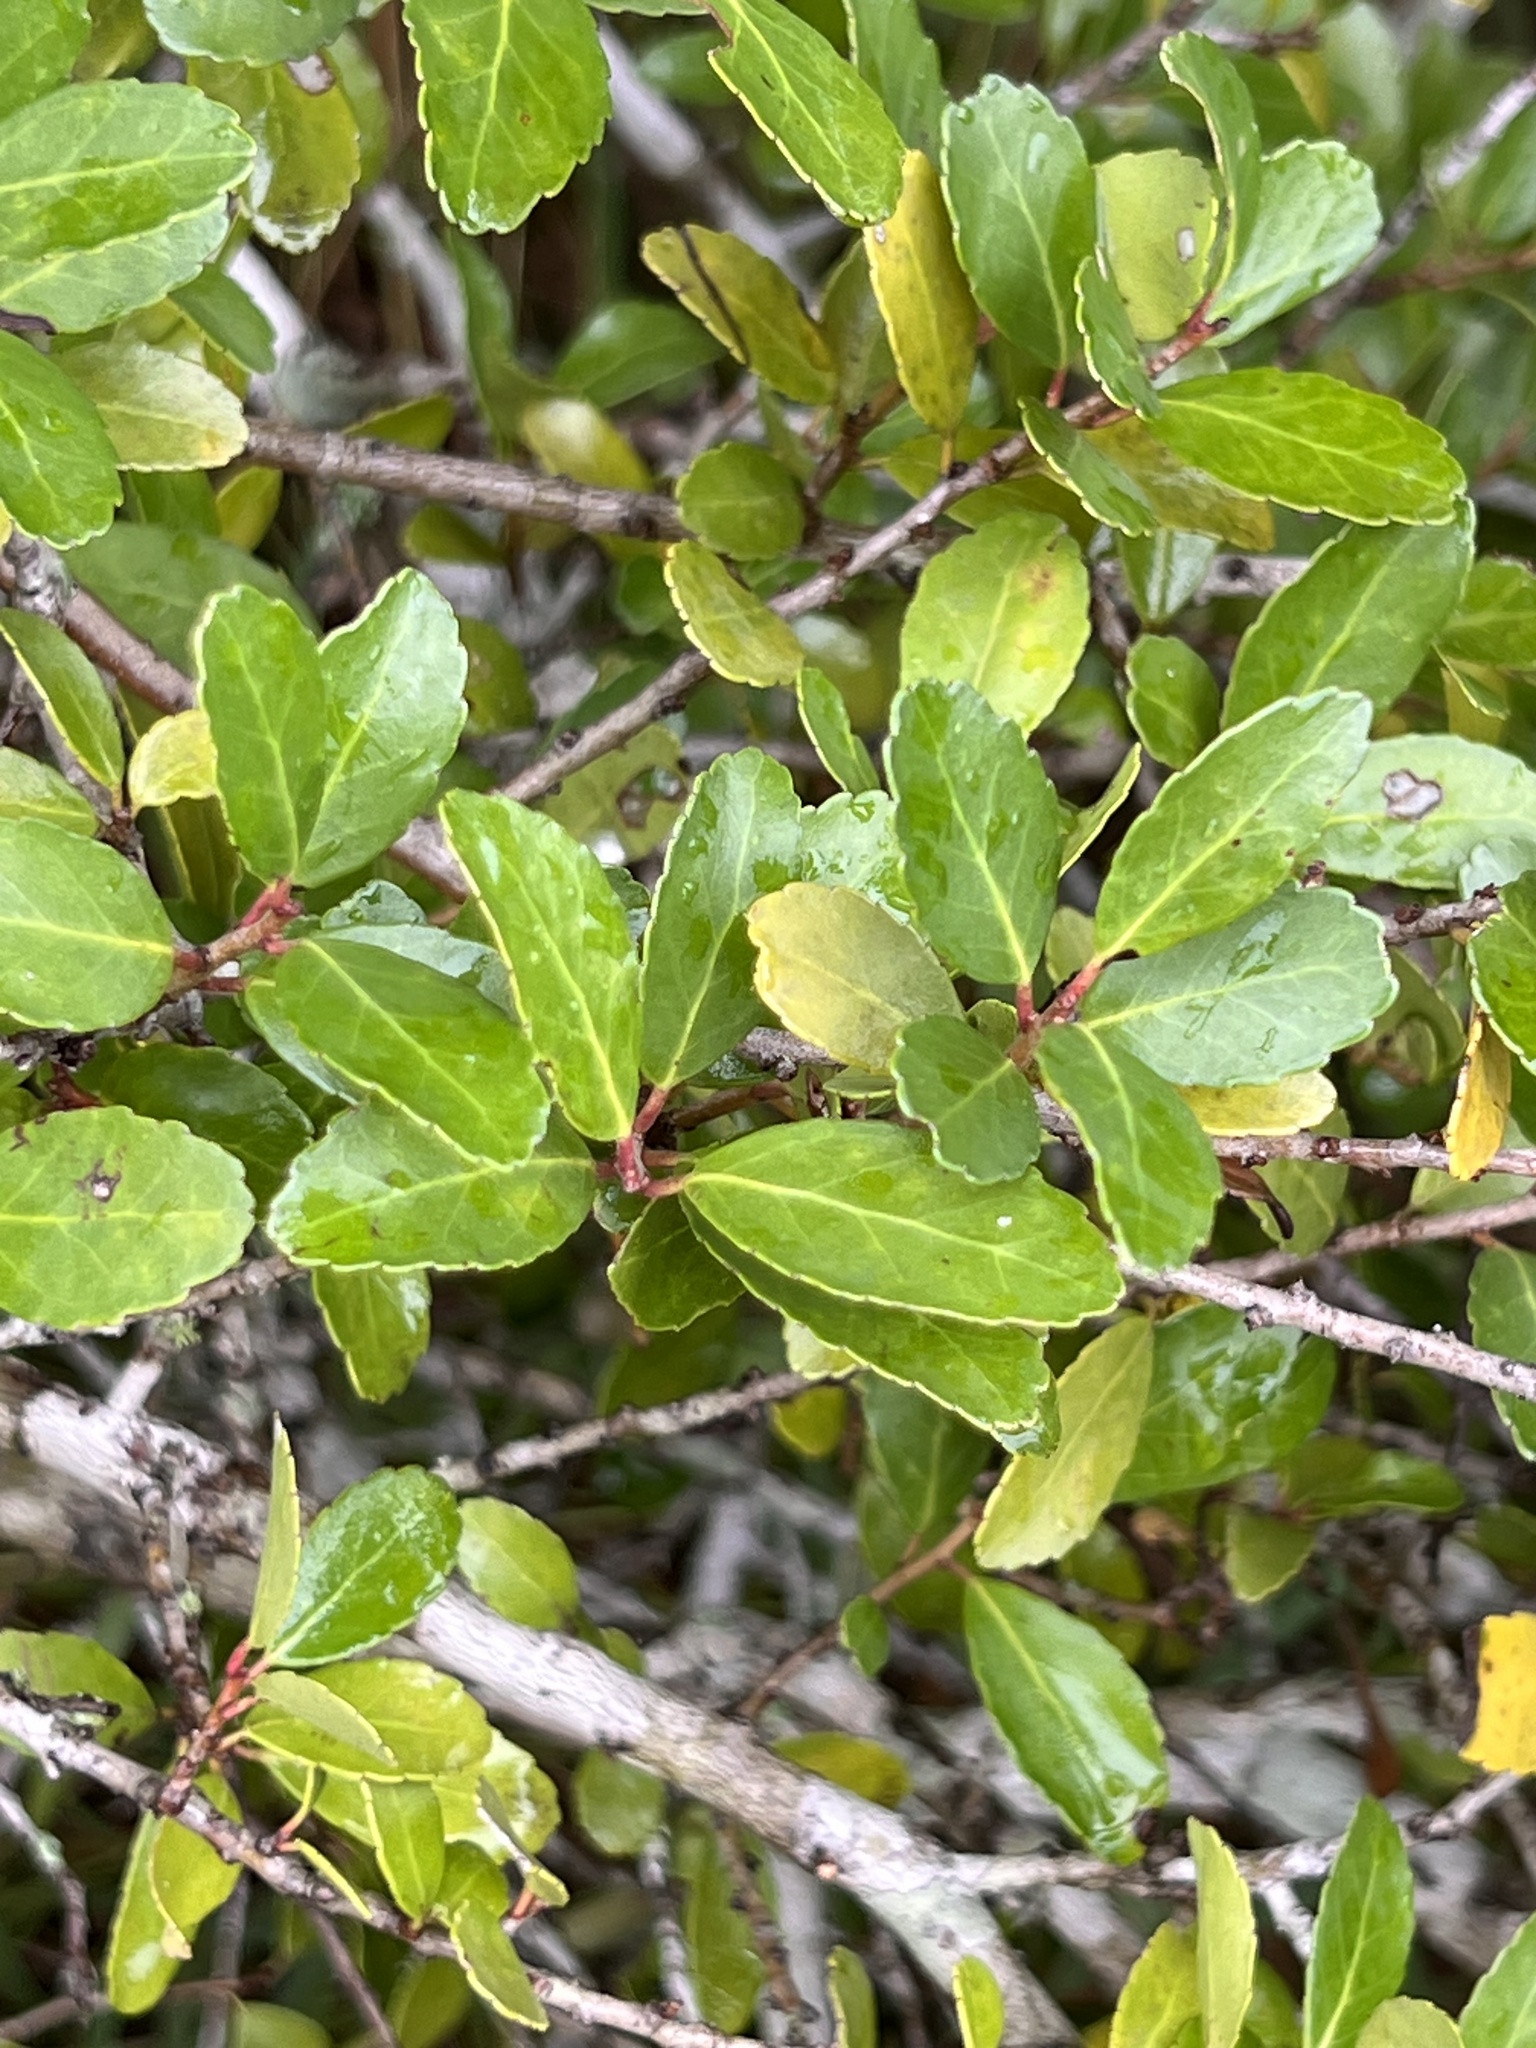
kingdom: Plantae
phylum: Tracheophyta
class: Magnoliopsida
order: Aquifoliales
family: Aquifoliaceae
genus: Ilex
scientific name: Ilex vomitoria
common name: Yaupon holly
